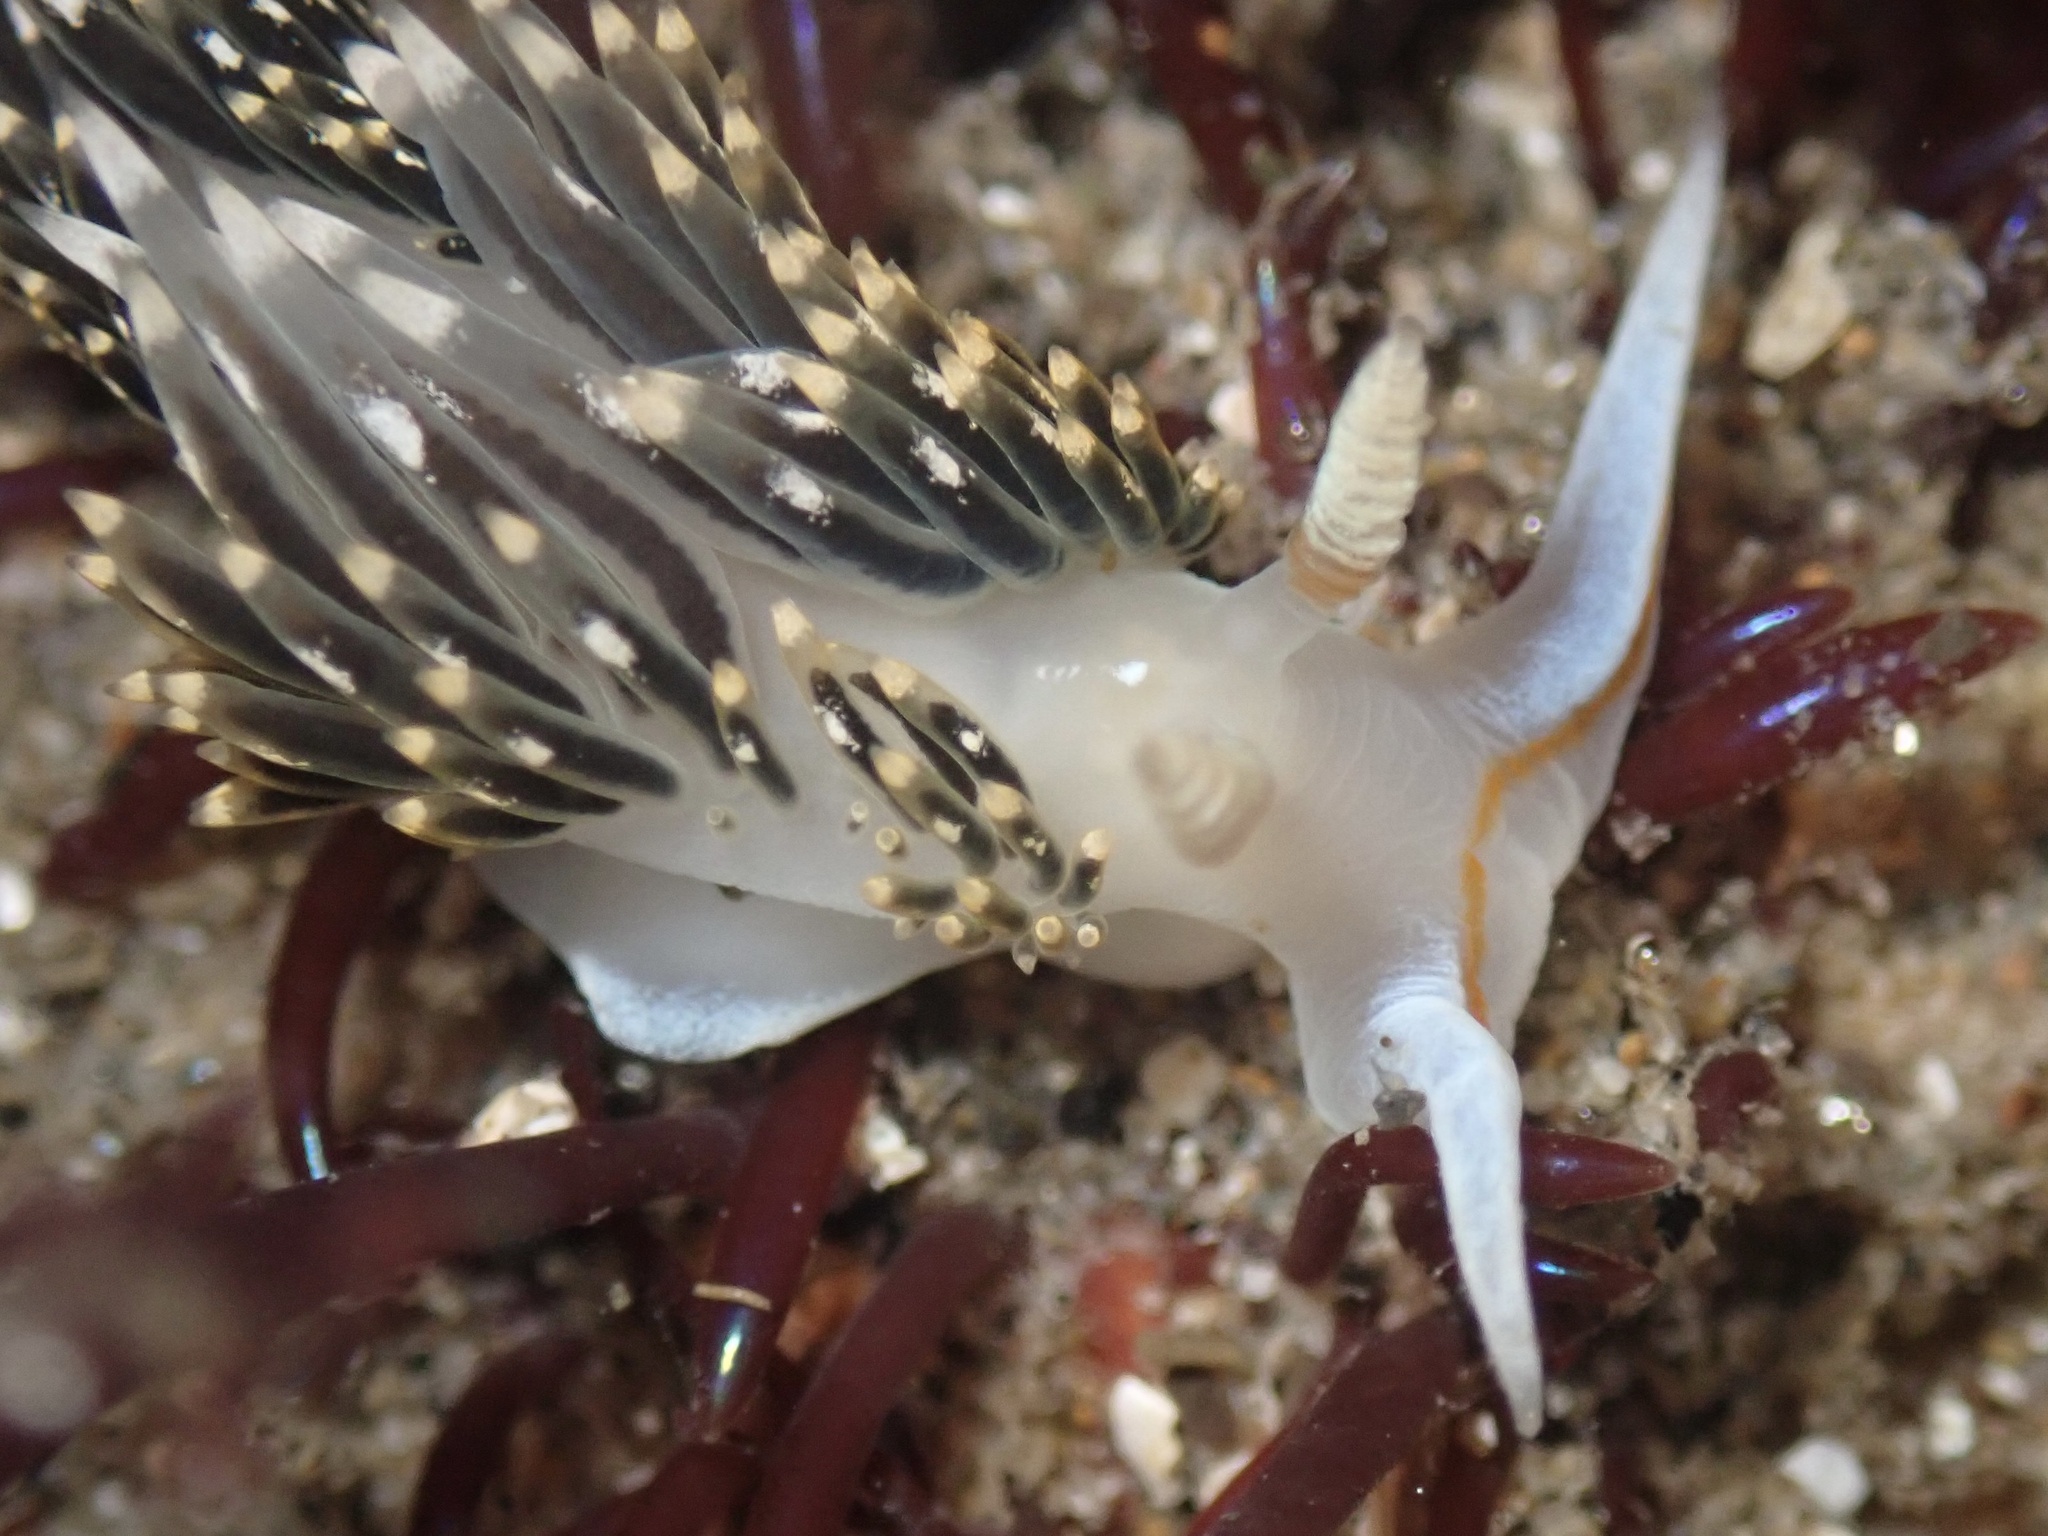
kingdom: Animalia
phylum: Mollusca
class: Gastropoda
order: Nudibranchia
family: Facelinidae
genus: Phidiana
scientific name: Phidiana hiltoni
